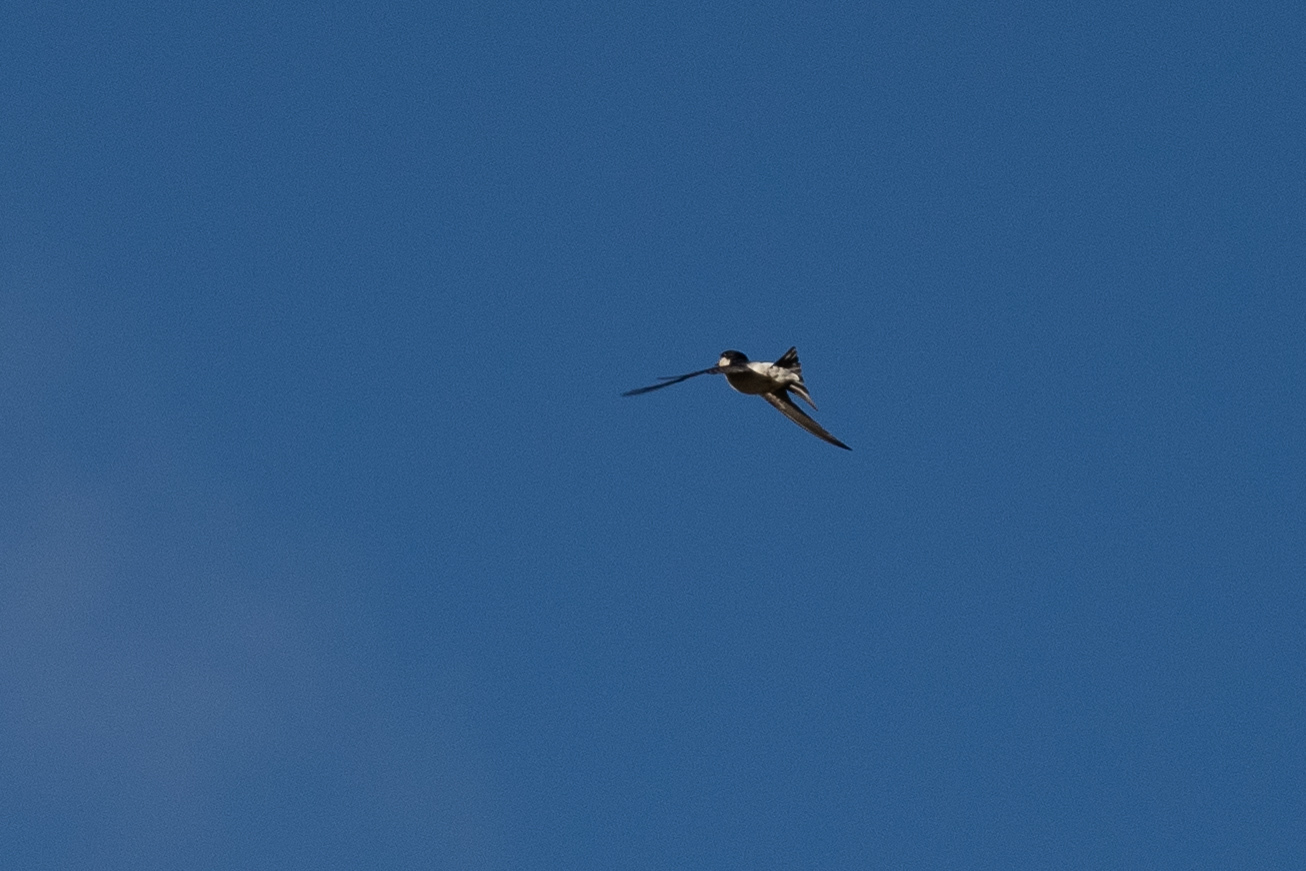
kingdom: Animalia
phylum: Chordata
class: Aves
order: Passeriformes
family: Hirundinidae
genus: Delichon
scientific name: Delichon urbicum
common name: Common house martin
